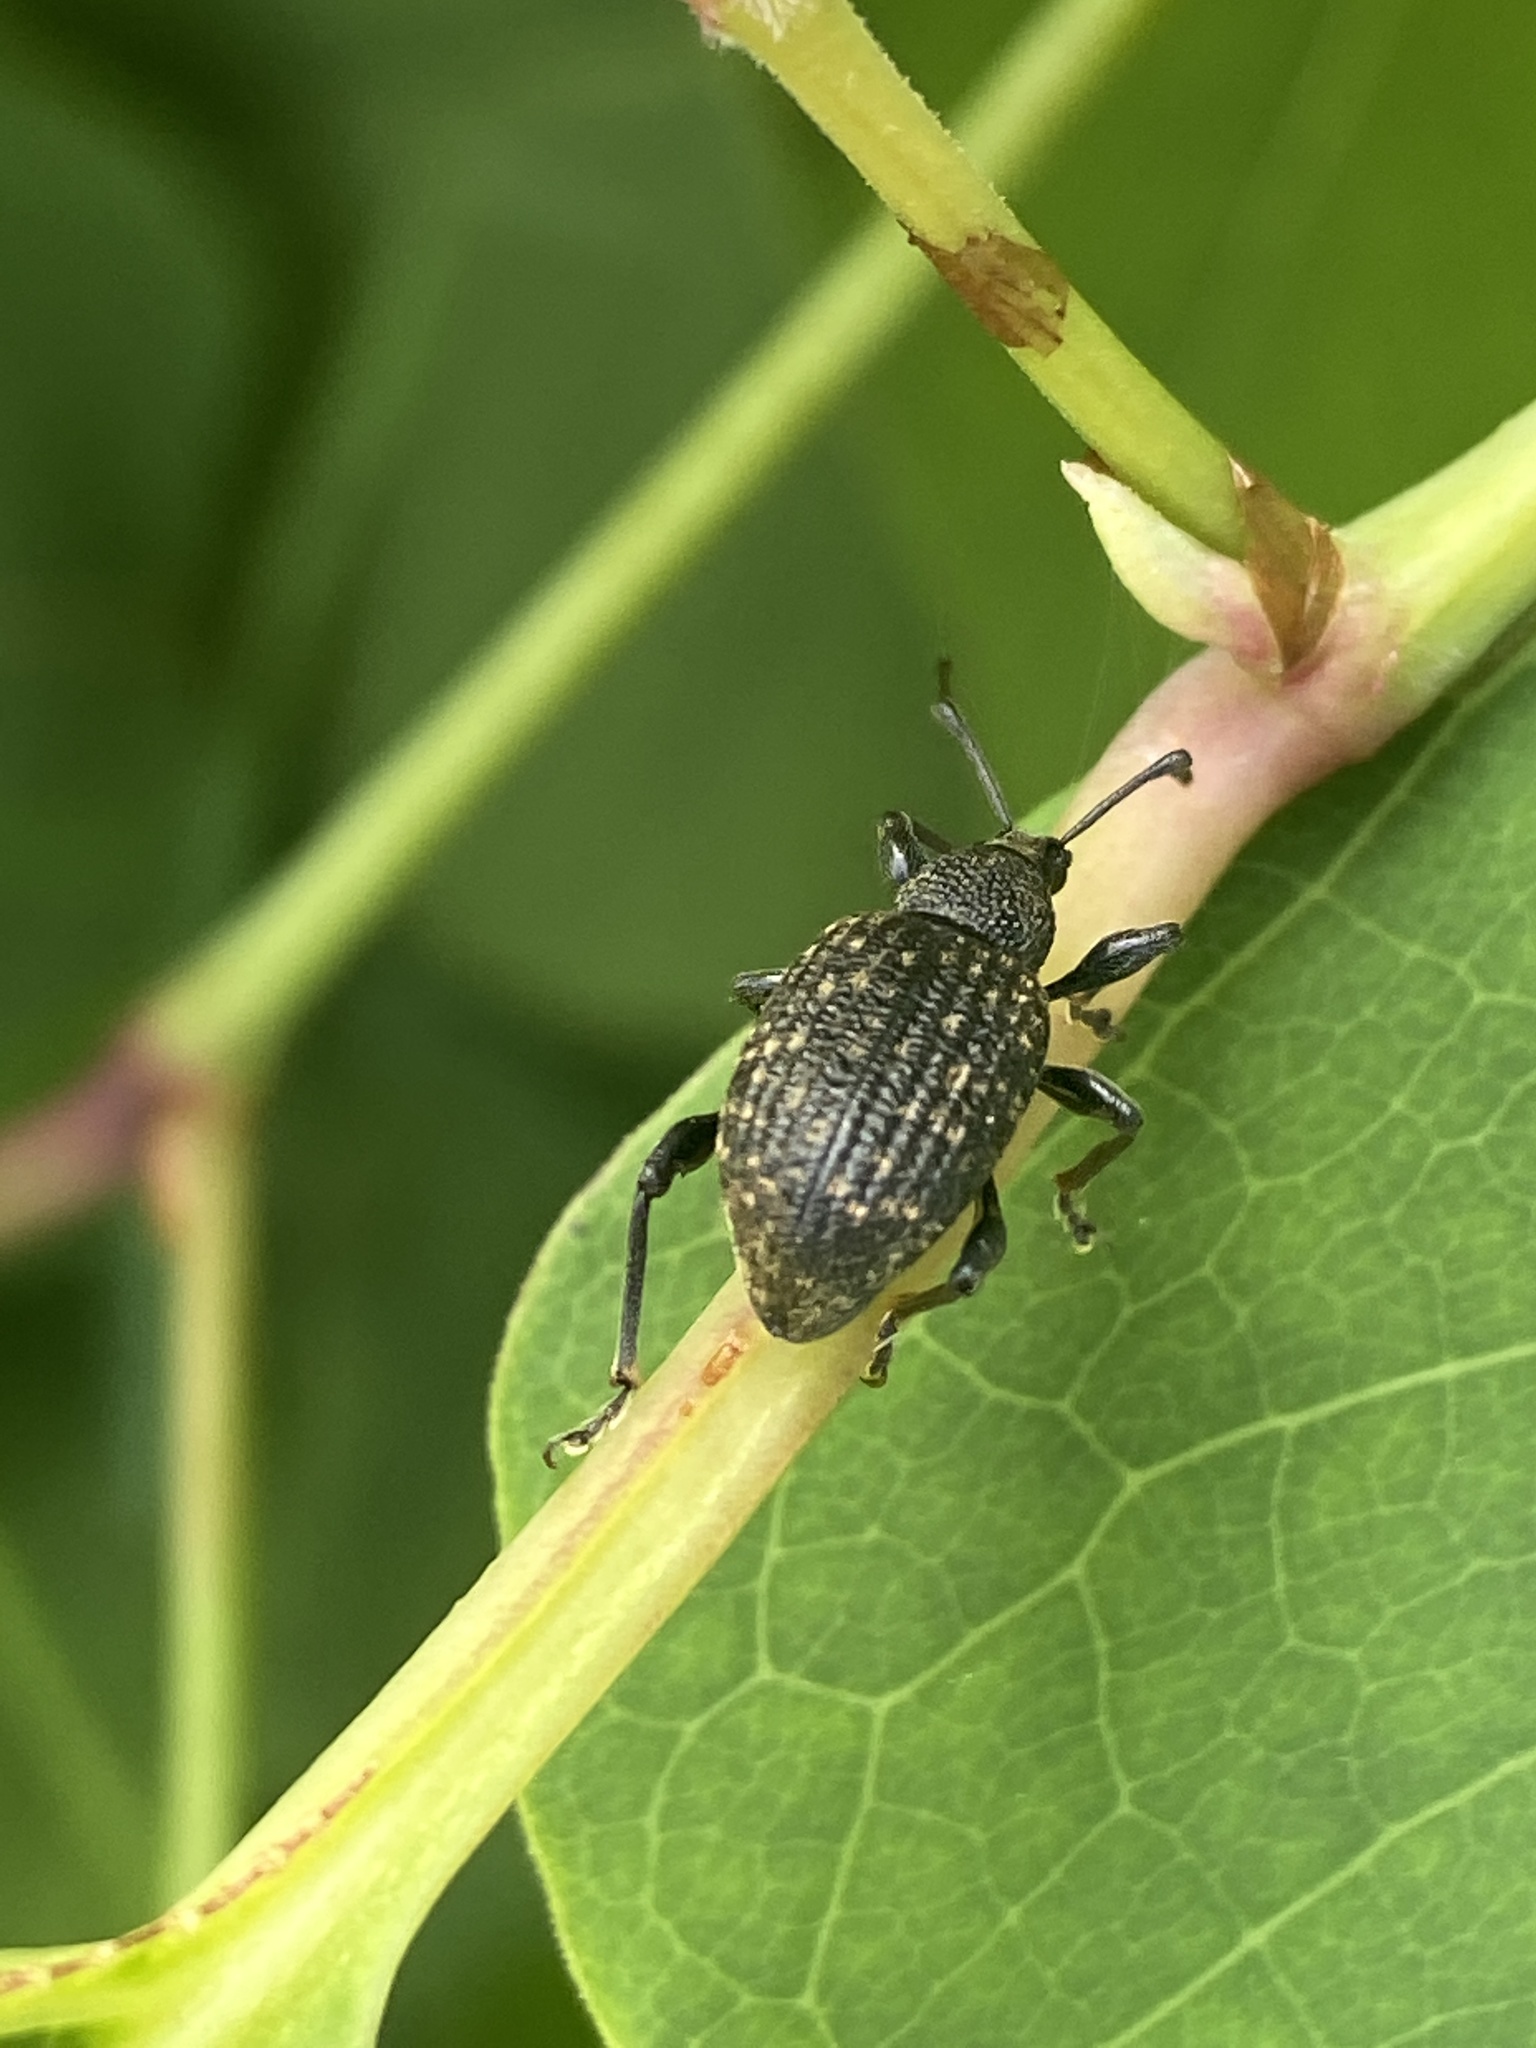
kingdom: Animalia
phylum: Arthropoda
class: Insecta
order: Coleoptera
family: Curculionidae
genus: Otiorhynchus
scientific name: Otiorhynchus sulcatus
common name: Black vine weevil
